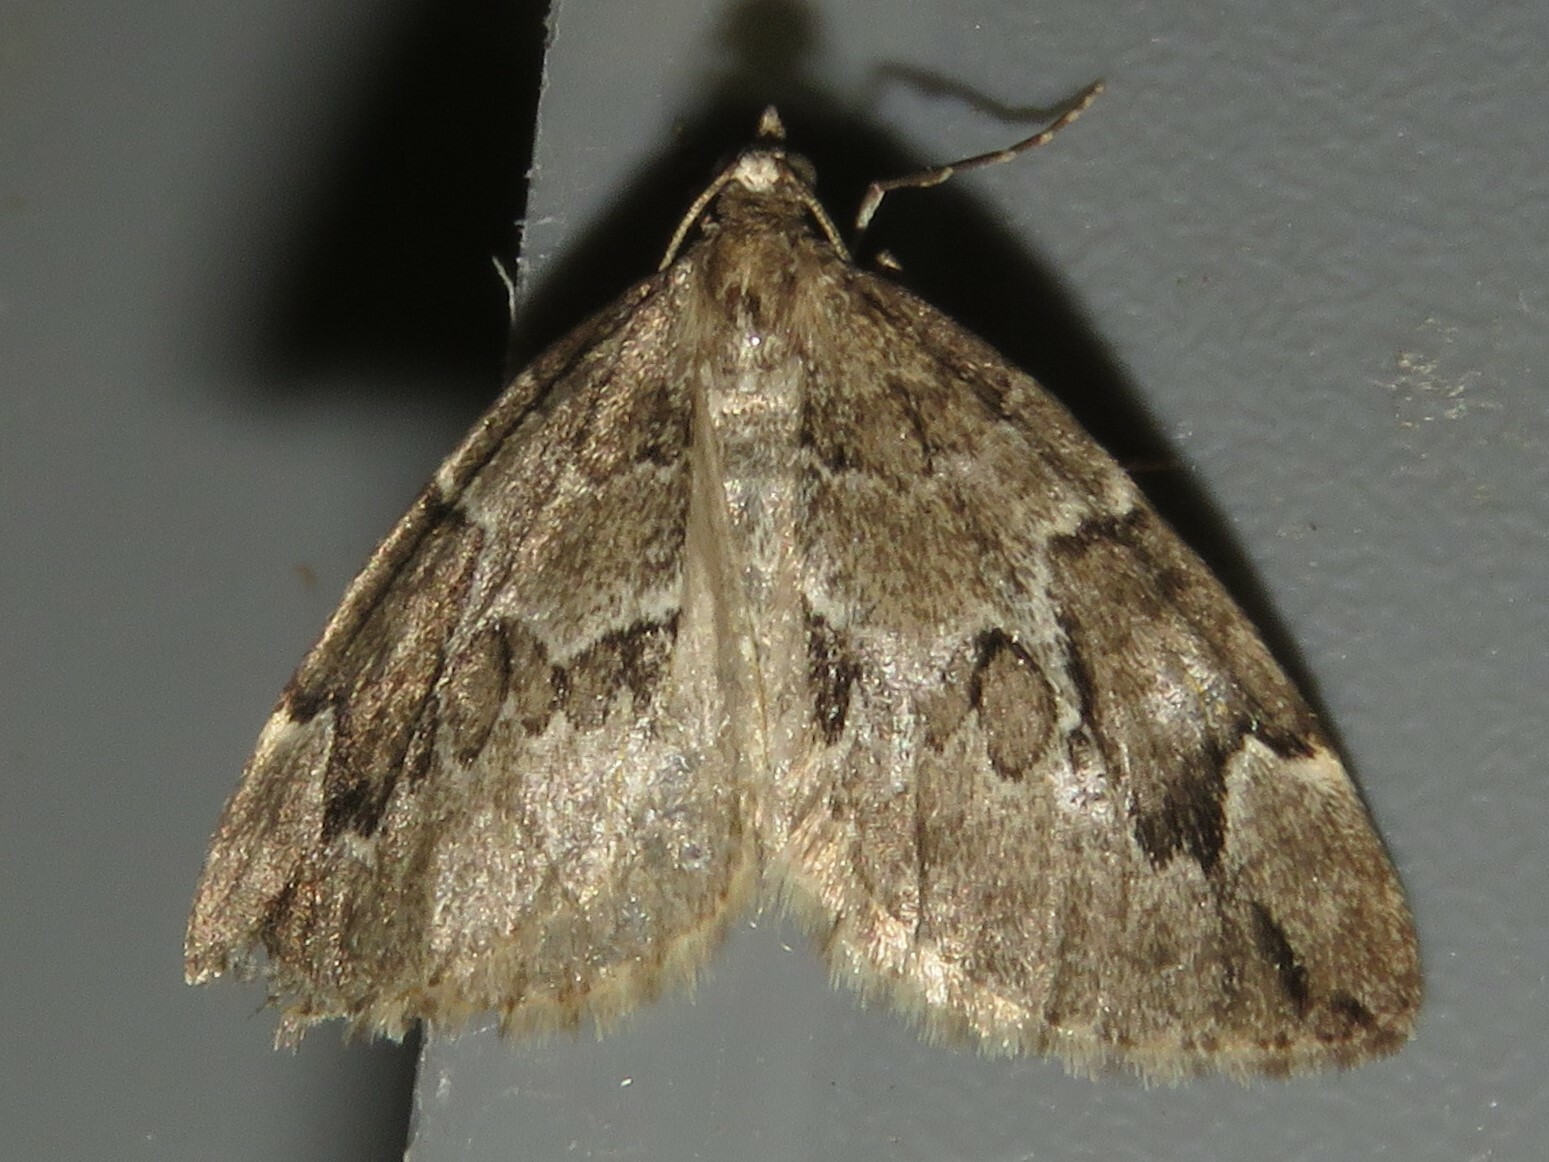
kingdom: Animalia
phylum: Arthropoda
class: Insecta
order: Lepidoptera
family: Geometridae
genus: Thera
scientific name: Thera juniperata
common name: Juniper carpet
